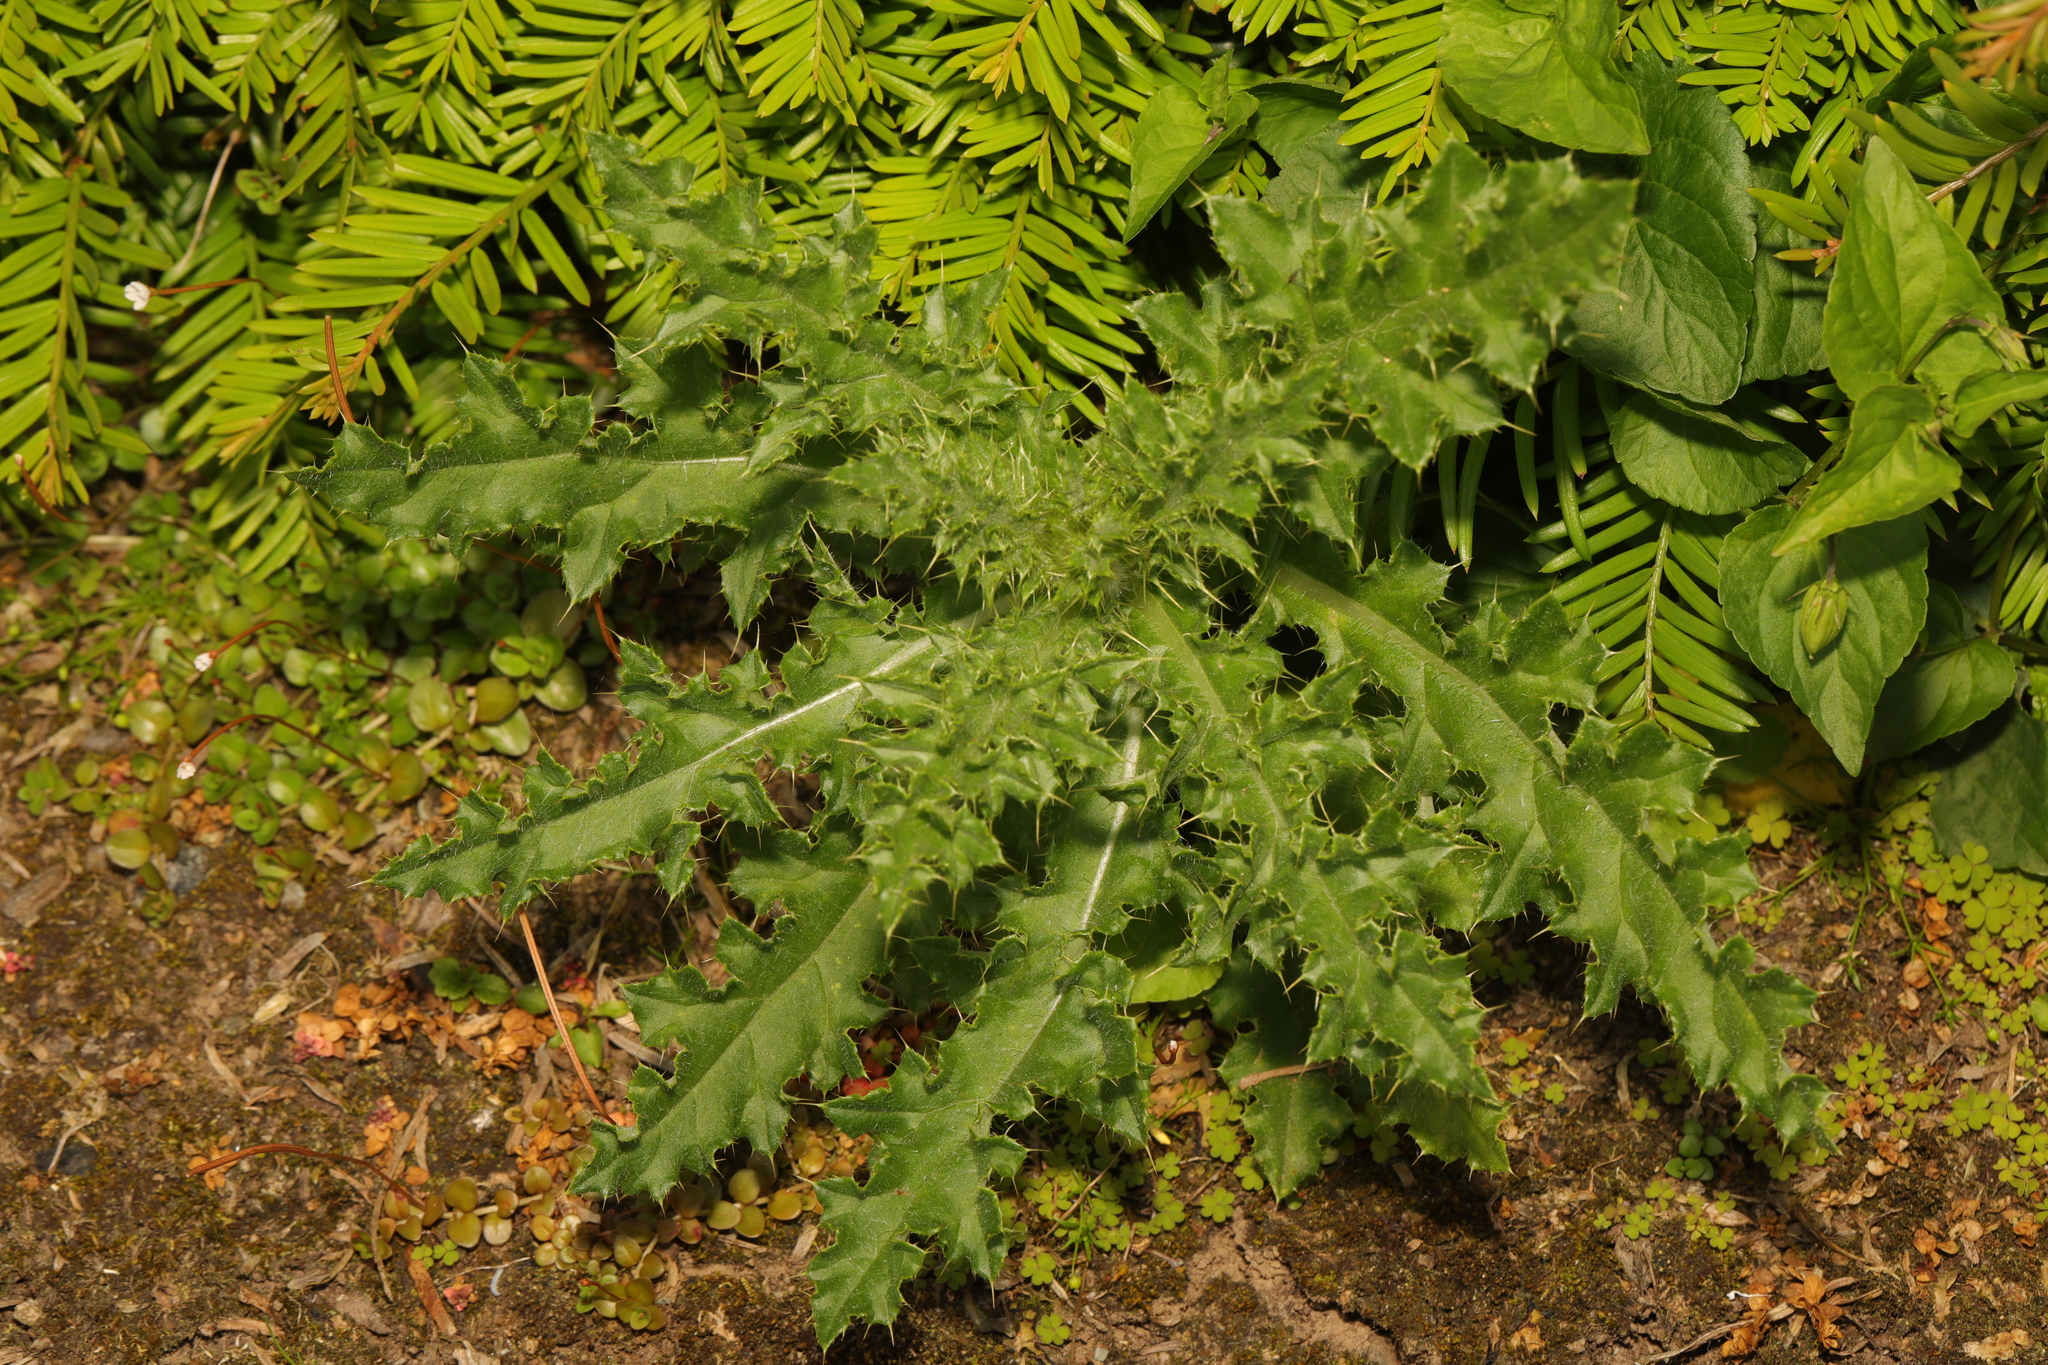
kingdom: Plantae
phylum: Tracheophyta
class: Magnoliopsida
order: Asterales
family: Asteraceae
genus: Cirsium
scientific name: Cirsium arvense
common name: Creeping thistle
